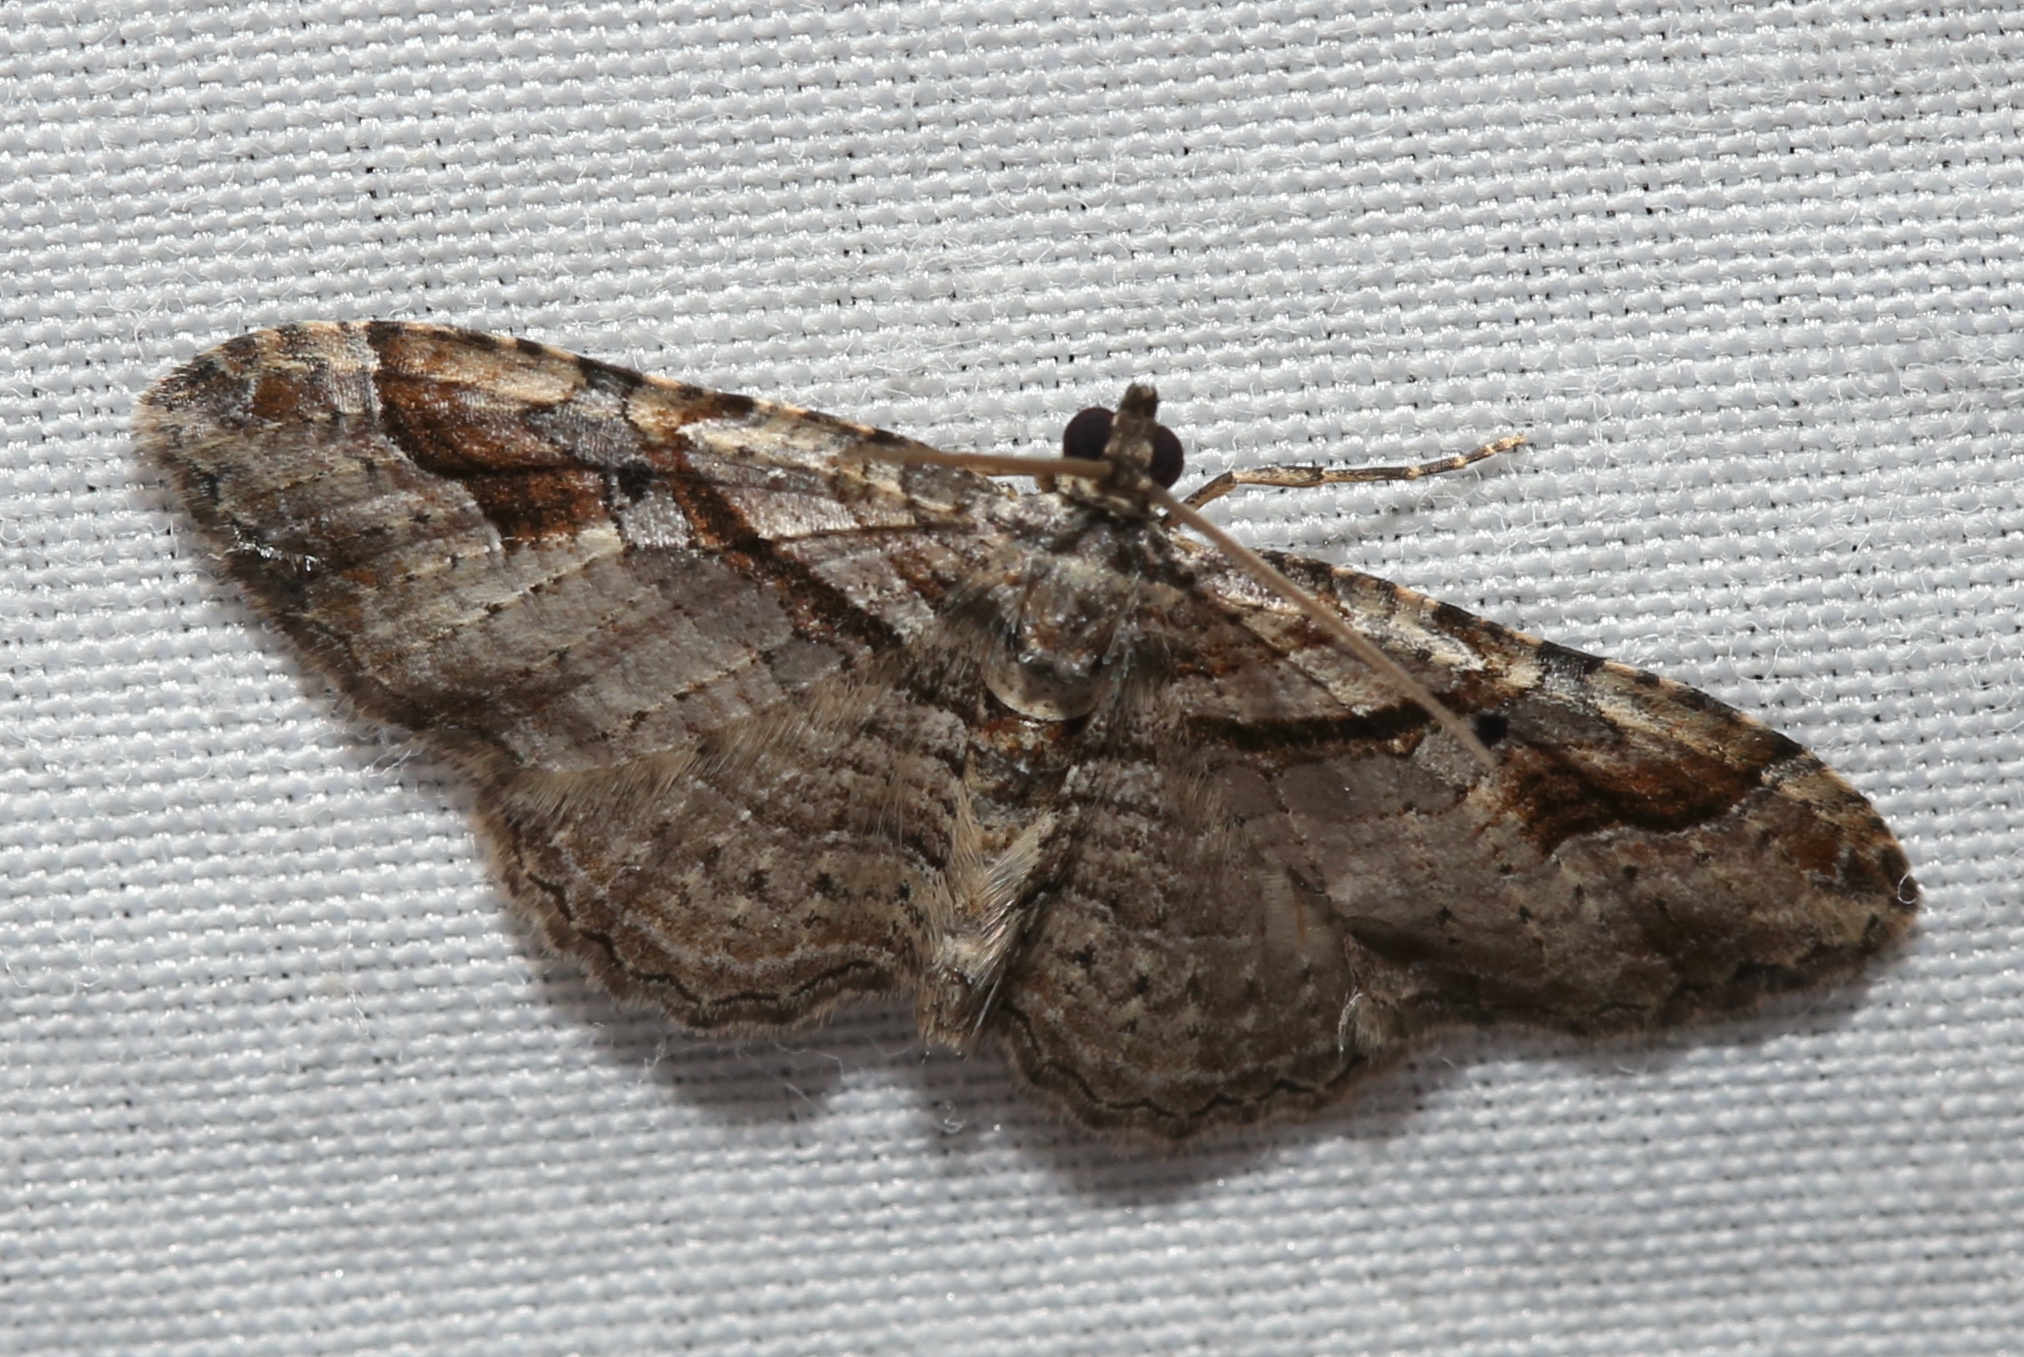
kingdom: Animalia
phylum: Arthropoda
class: Insecta
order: Lepidoptera
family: Geometridae
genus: Costaconvexa
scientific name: Costaconvexa centrostrigaria
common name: Bent-line carpet
